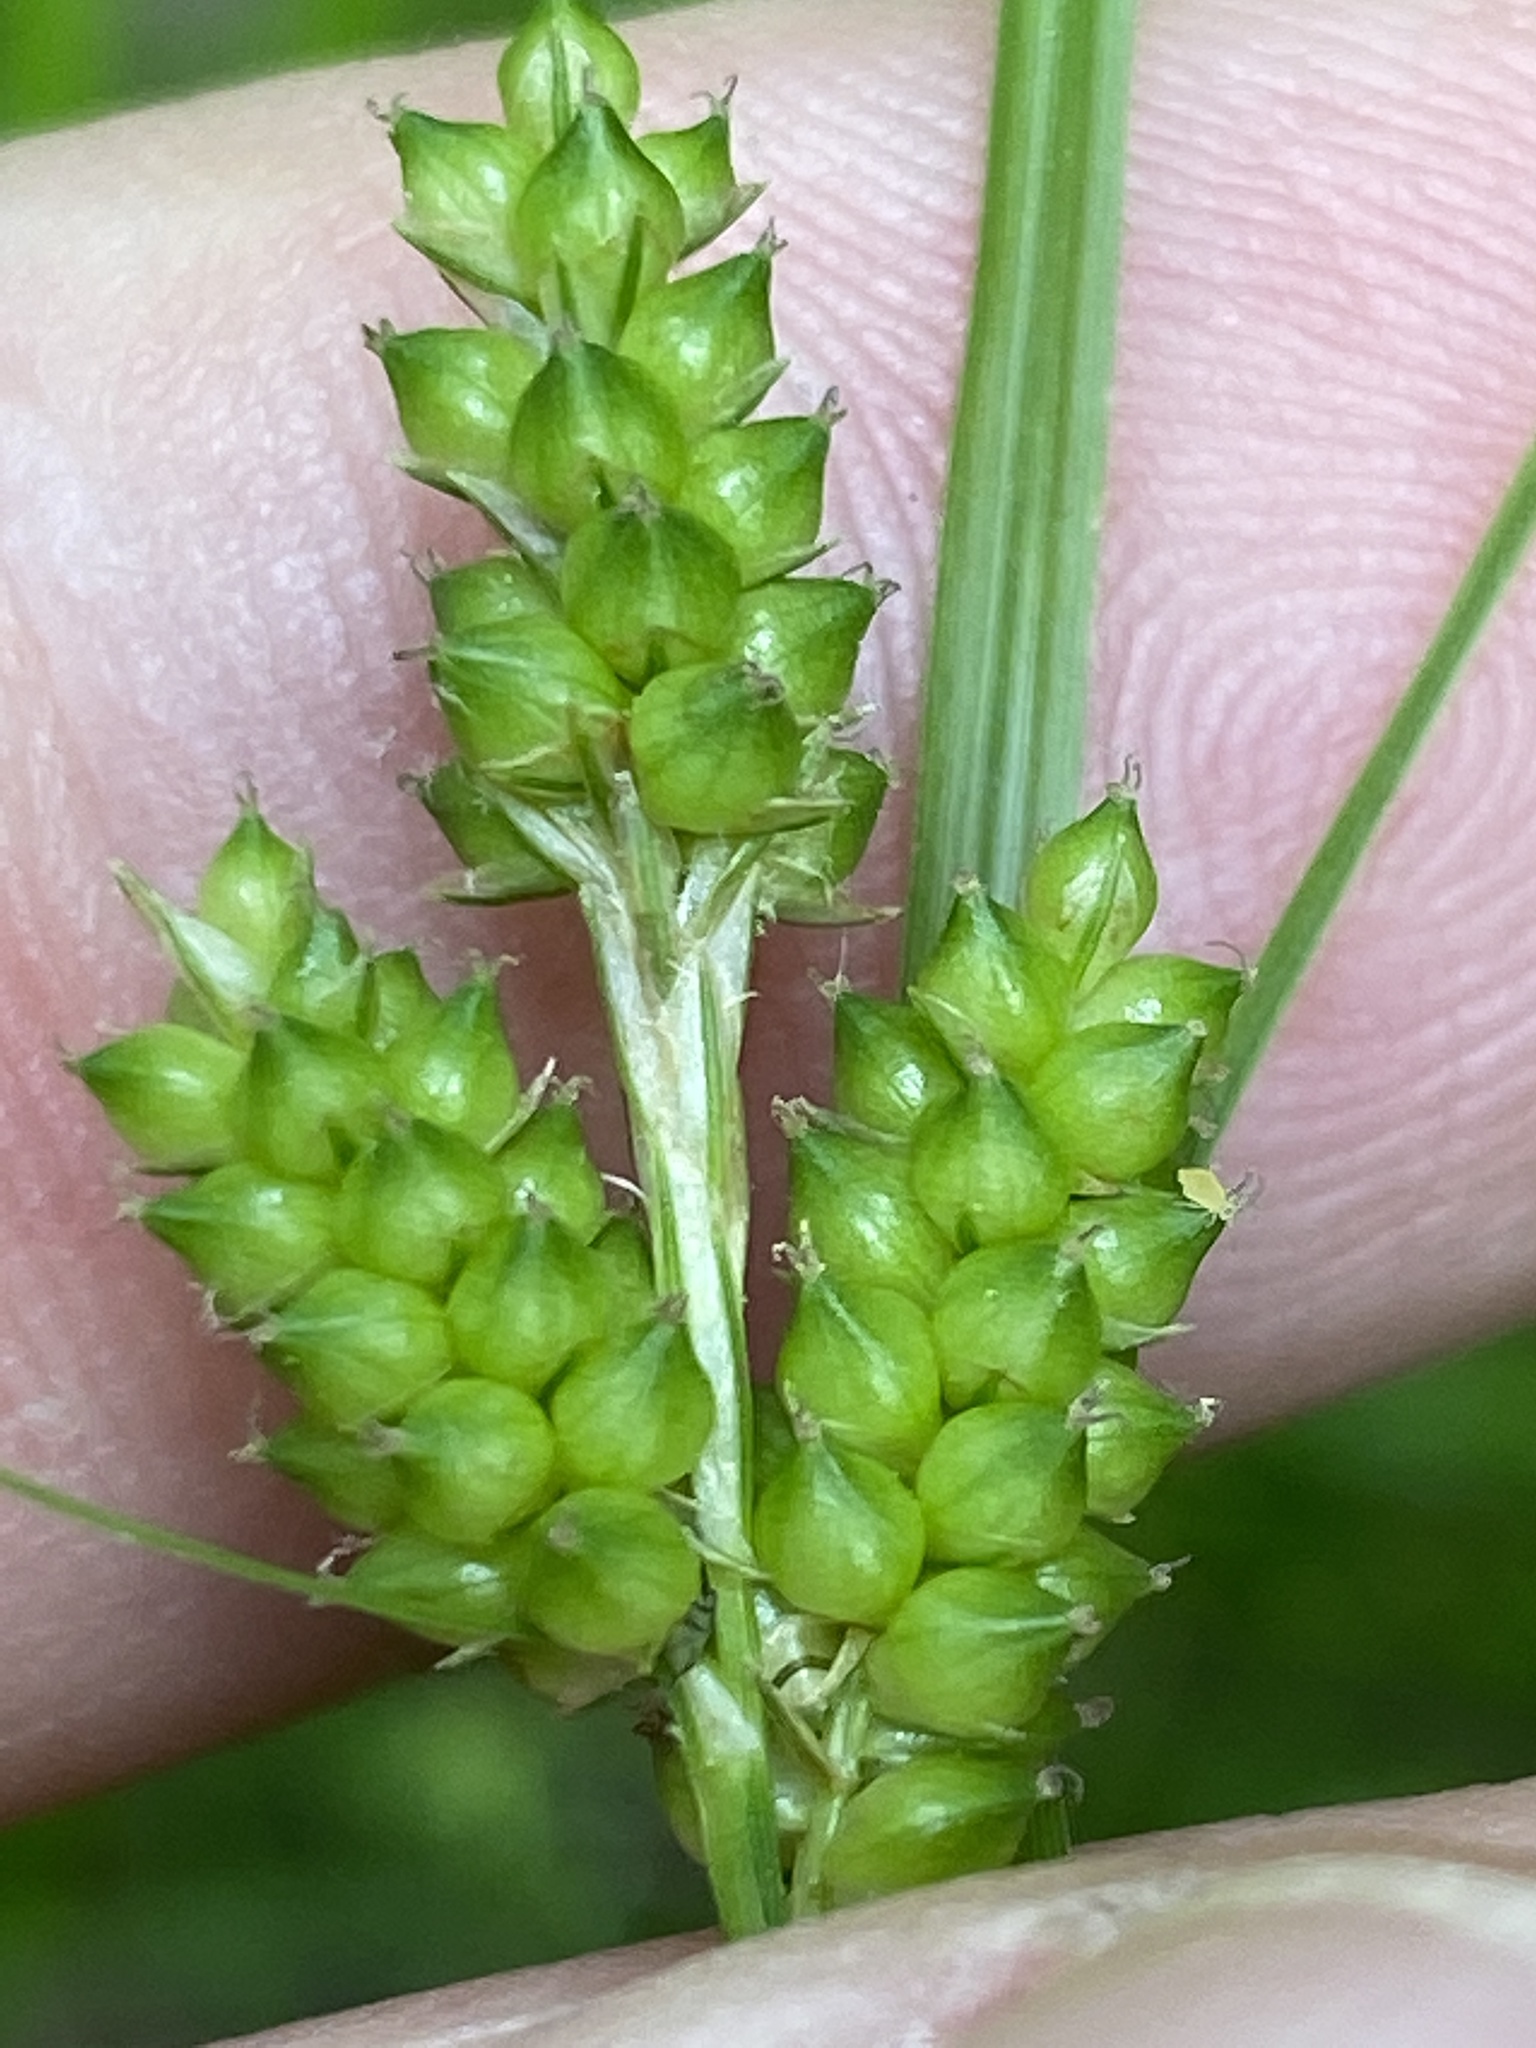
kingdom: Plantae
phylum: Tracheophyta
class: Liliopsida
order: Poales
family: Cyperaceae
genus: Carex
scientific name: Carex caroliniana
